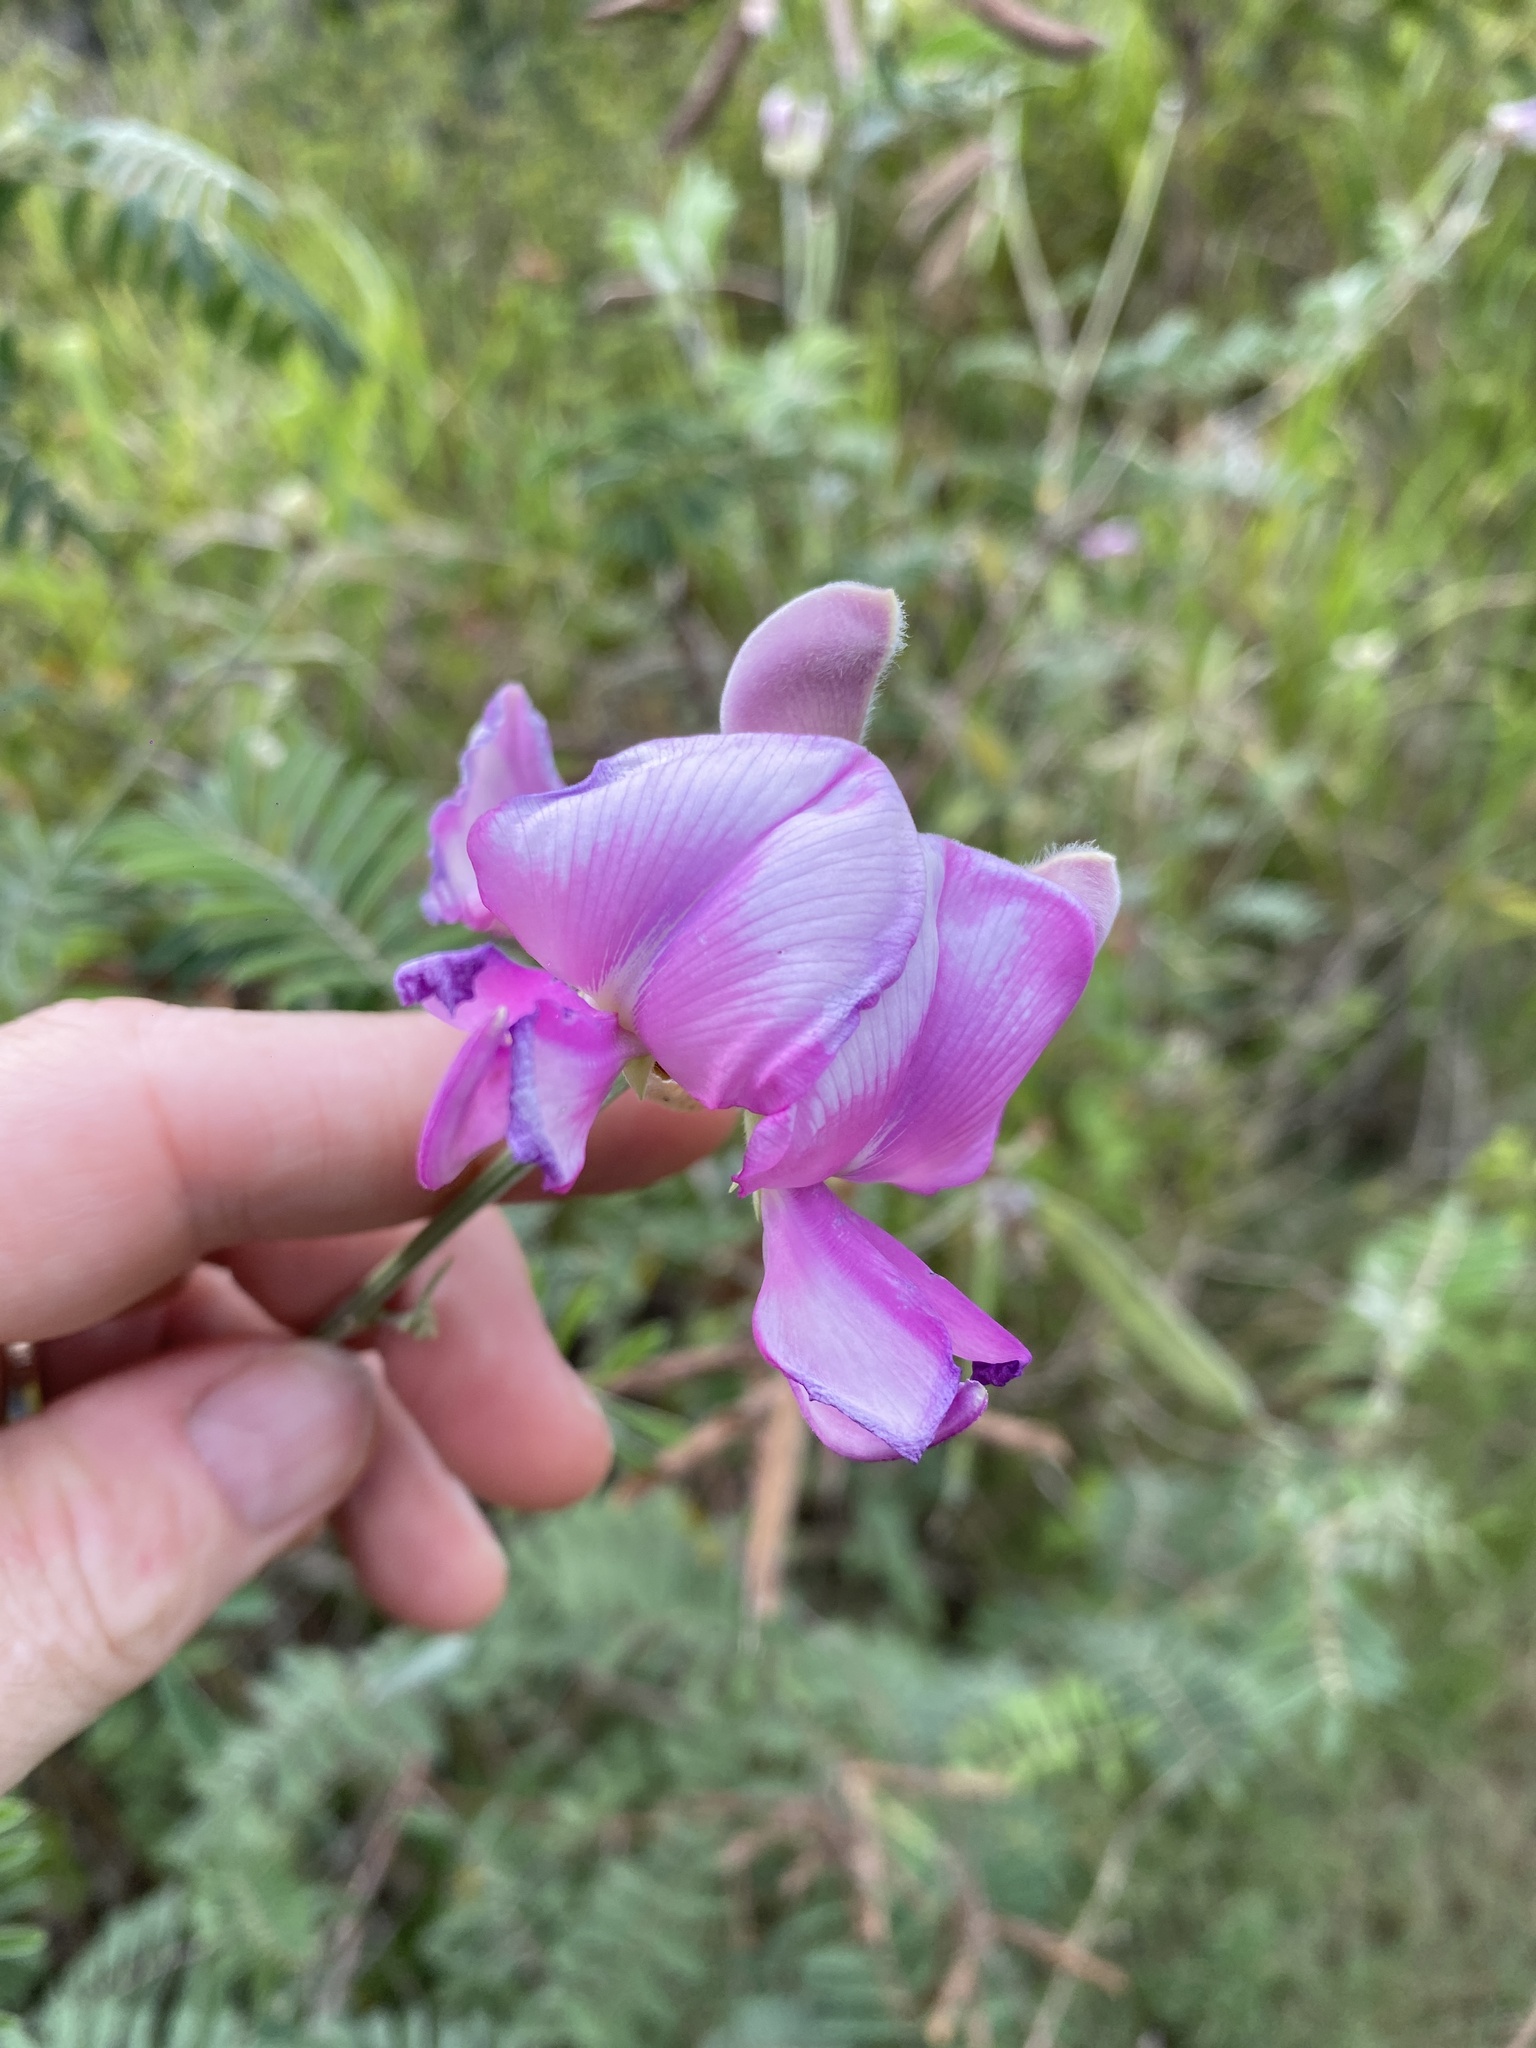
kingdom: Plantae
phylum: Tracheophyta
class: Magnoliopsida
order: Fabales
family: Fabaceae
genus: Tephrosia
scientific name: Tephrosia grandiflora
